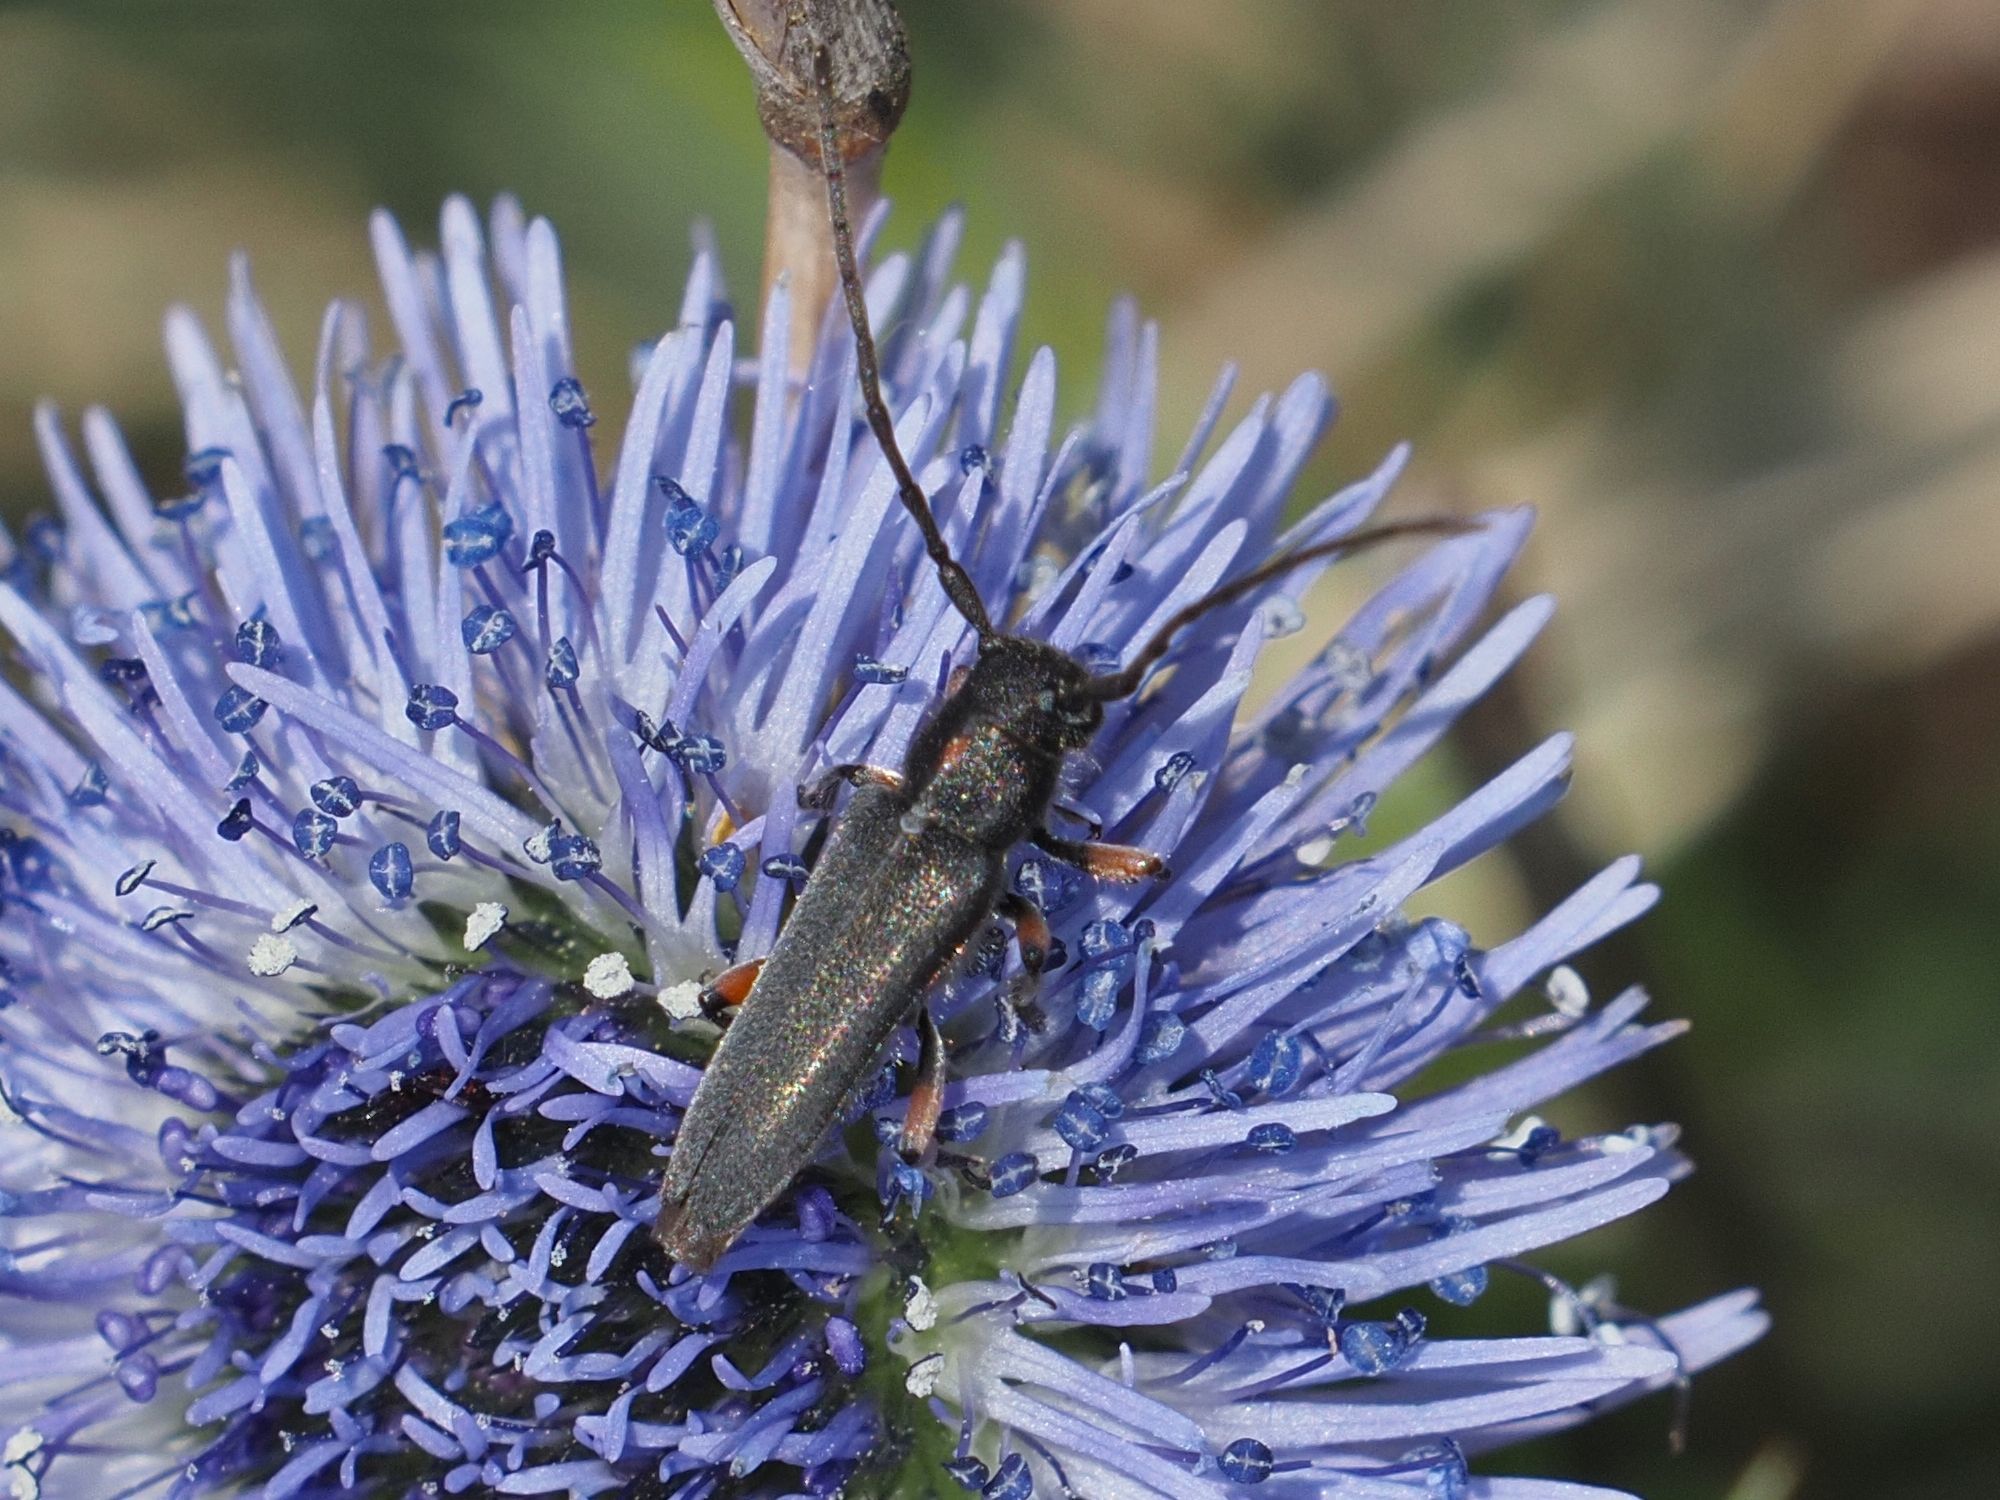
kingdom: Animalia
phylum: Arthropoda
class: Insecta
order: Coleoptera
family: Cerambycidae
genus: Phytoecia
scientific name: Phytoecia pustulata
